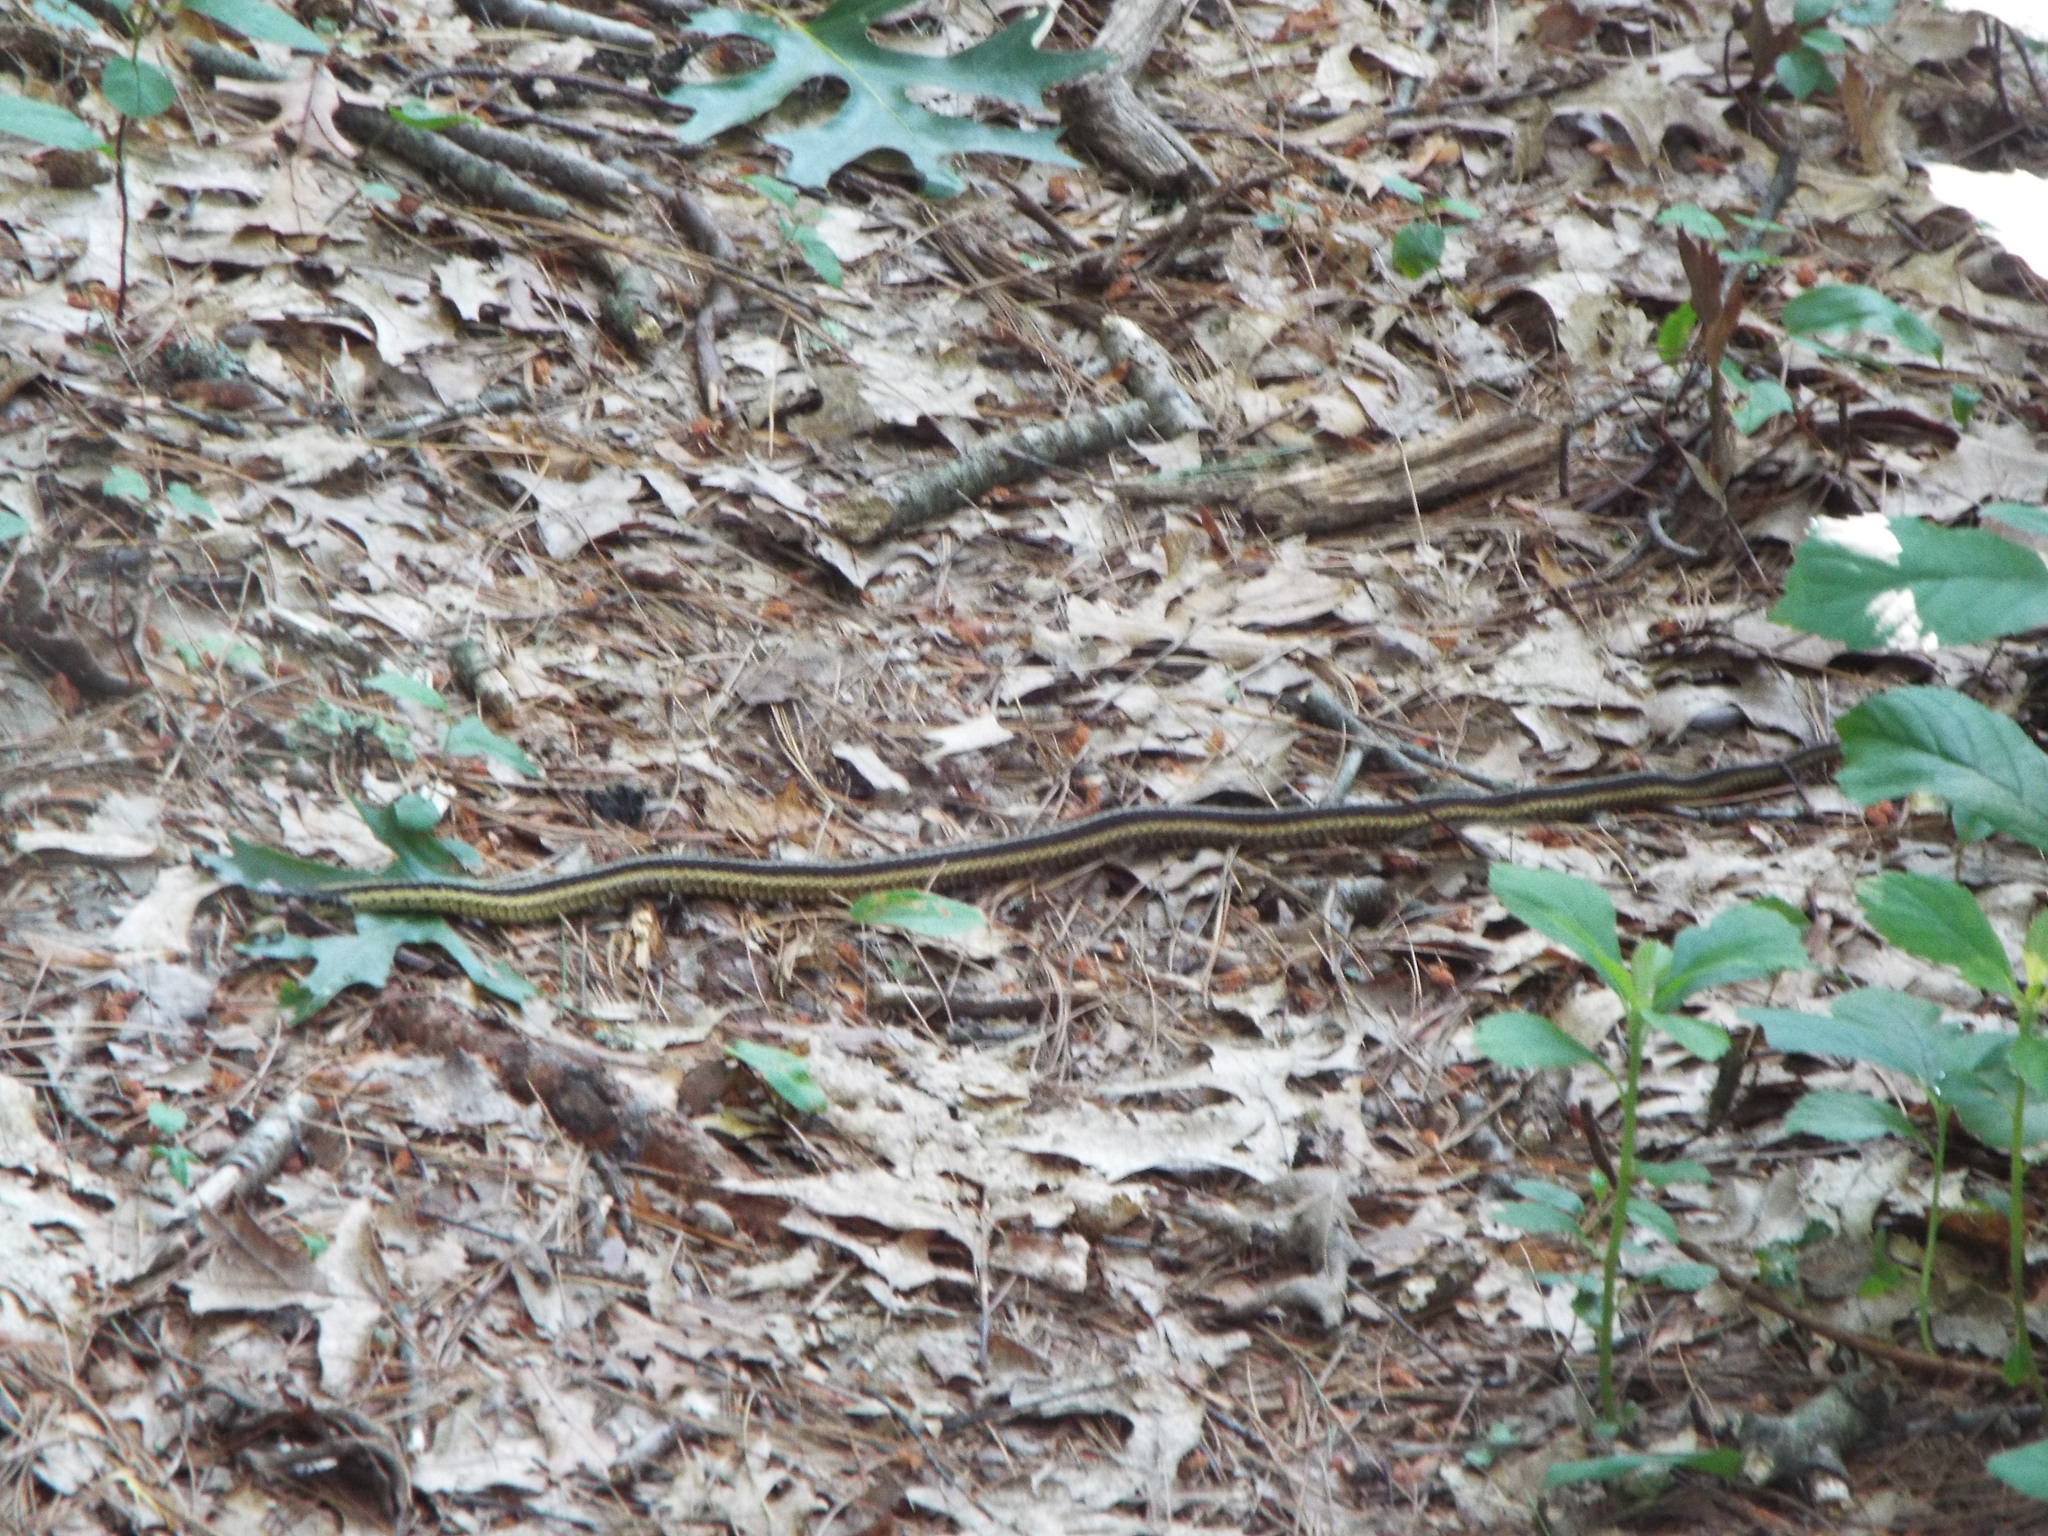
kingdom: Animalia
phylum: Chordata
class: Squamata
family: Colubridae
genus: Thamnophis
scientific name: Thamnophis sirtalis
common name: Common garter snake
